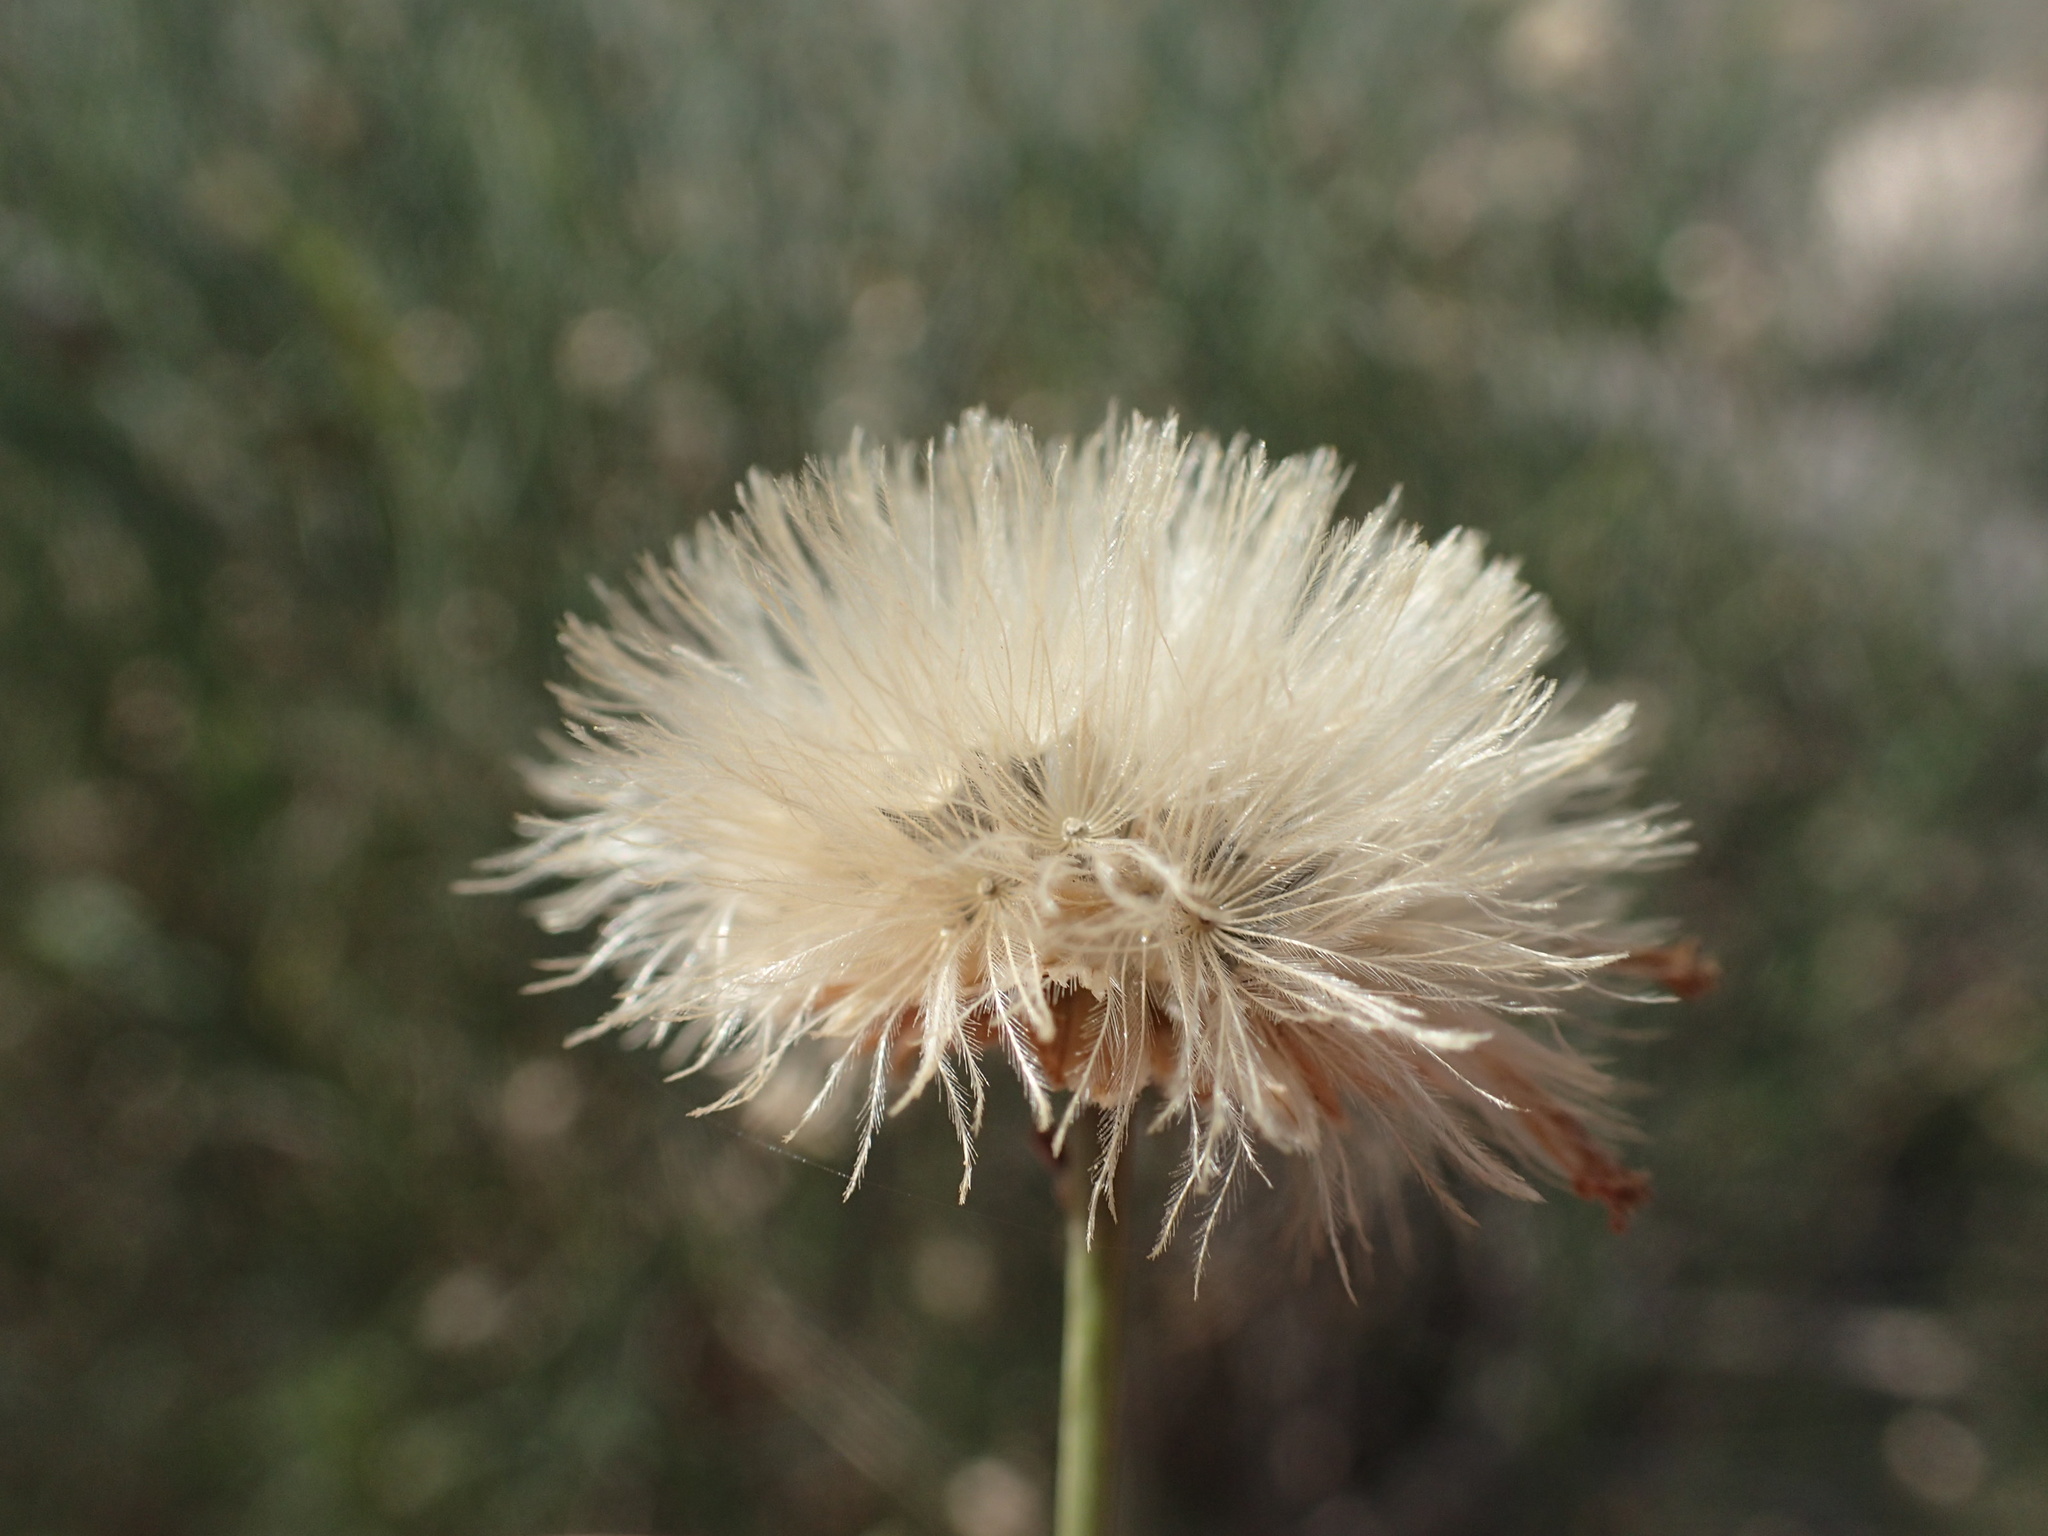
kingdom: Plantae
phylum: Tracheophyta
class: Magnoliopsida
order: Asterales
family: Asteraceae
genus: Bebbia
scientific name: Bebbia juncea
